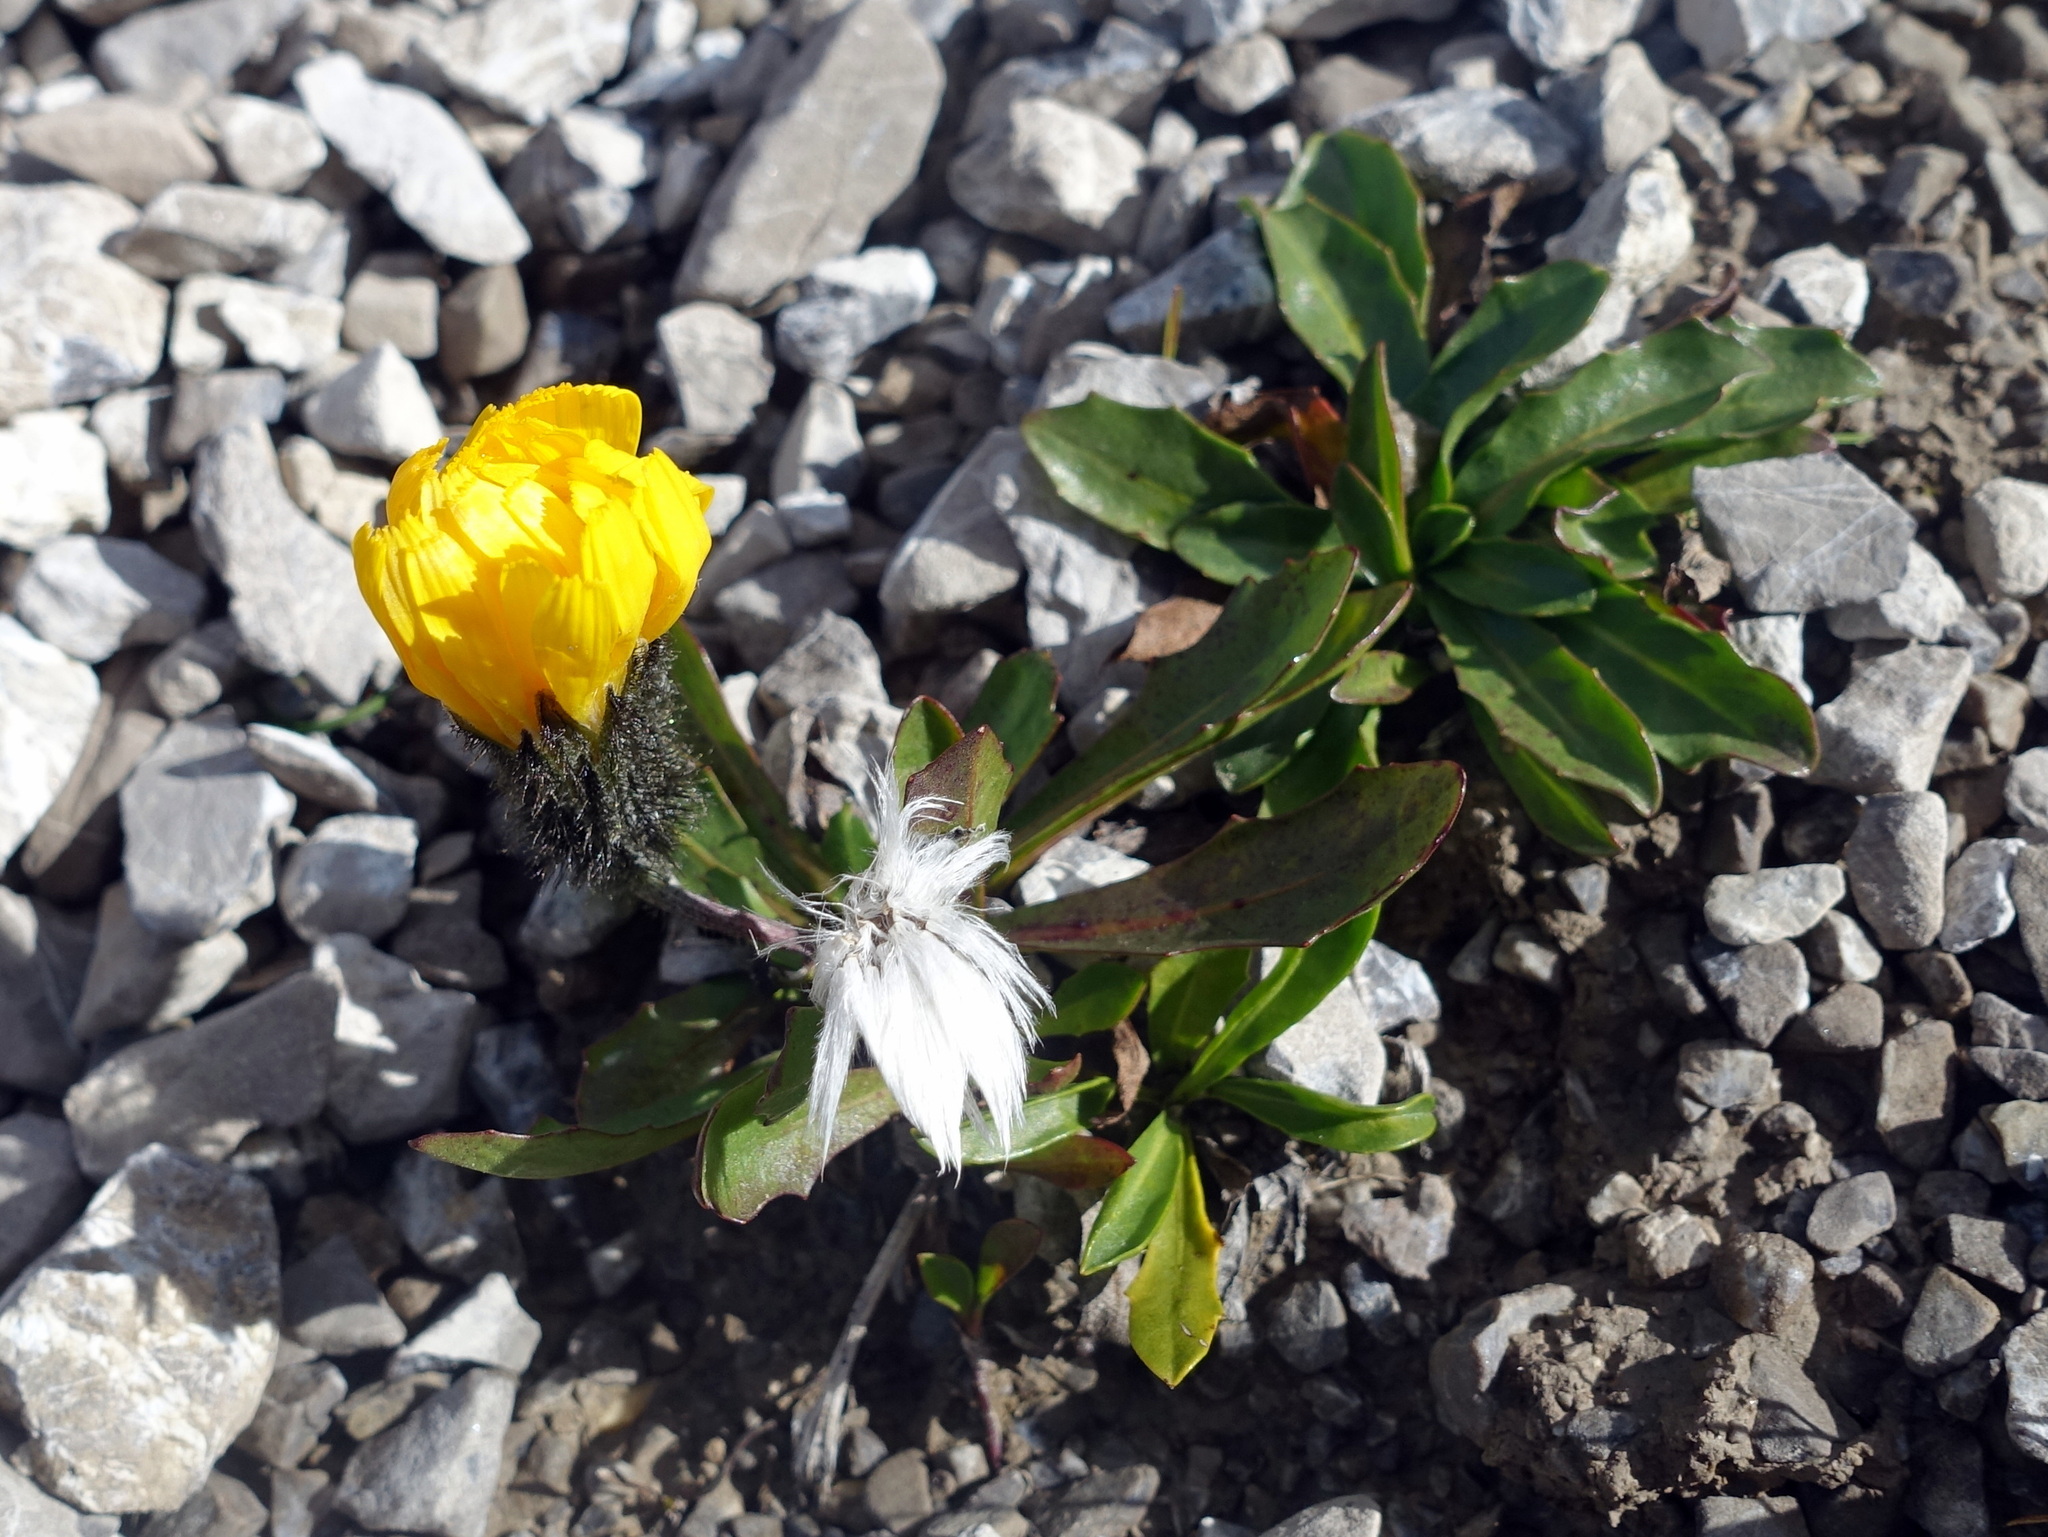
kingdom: Plantae
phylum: Tracheophyta
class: Magnoliopsida
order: Asterales
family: Asteraceae
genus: Scorzoneroides
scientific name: Scorzoneroides montana
